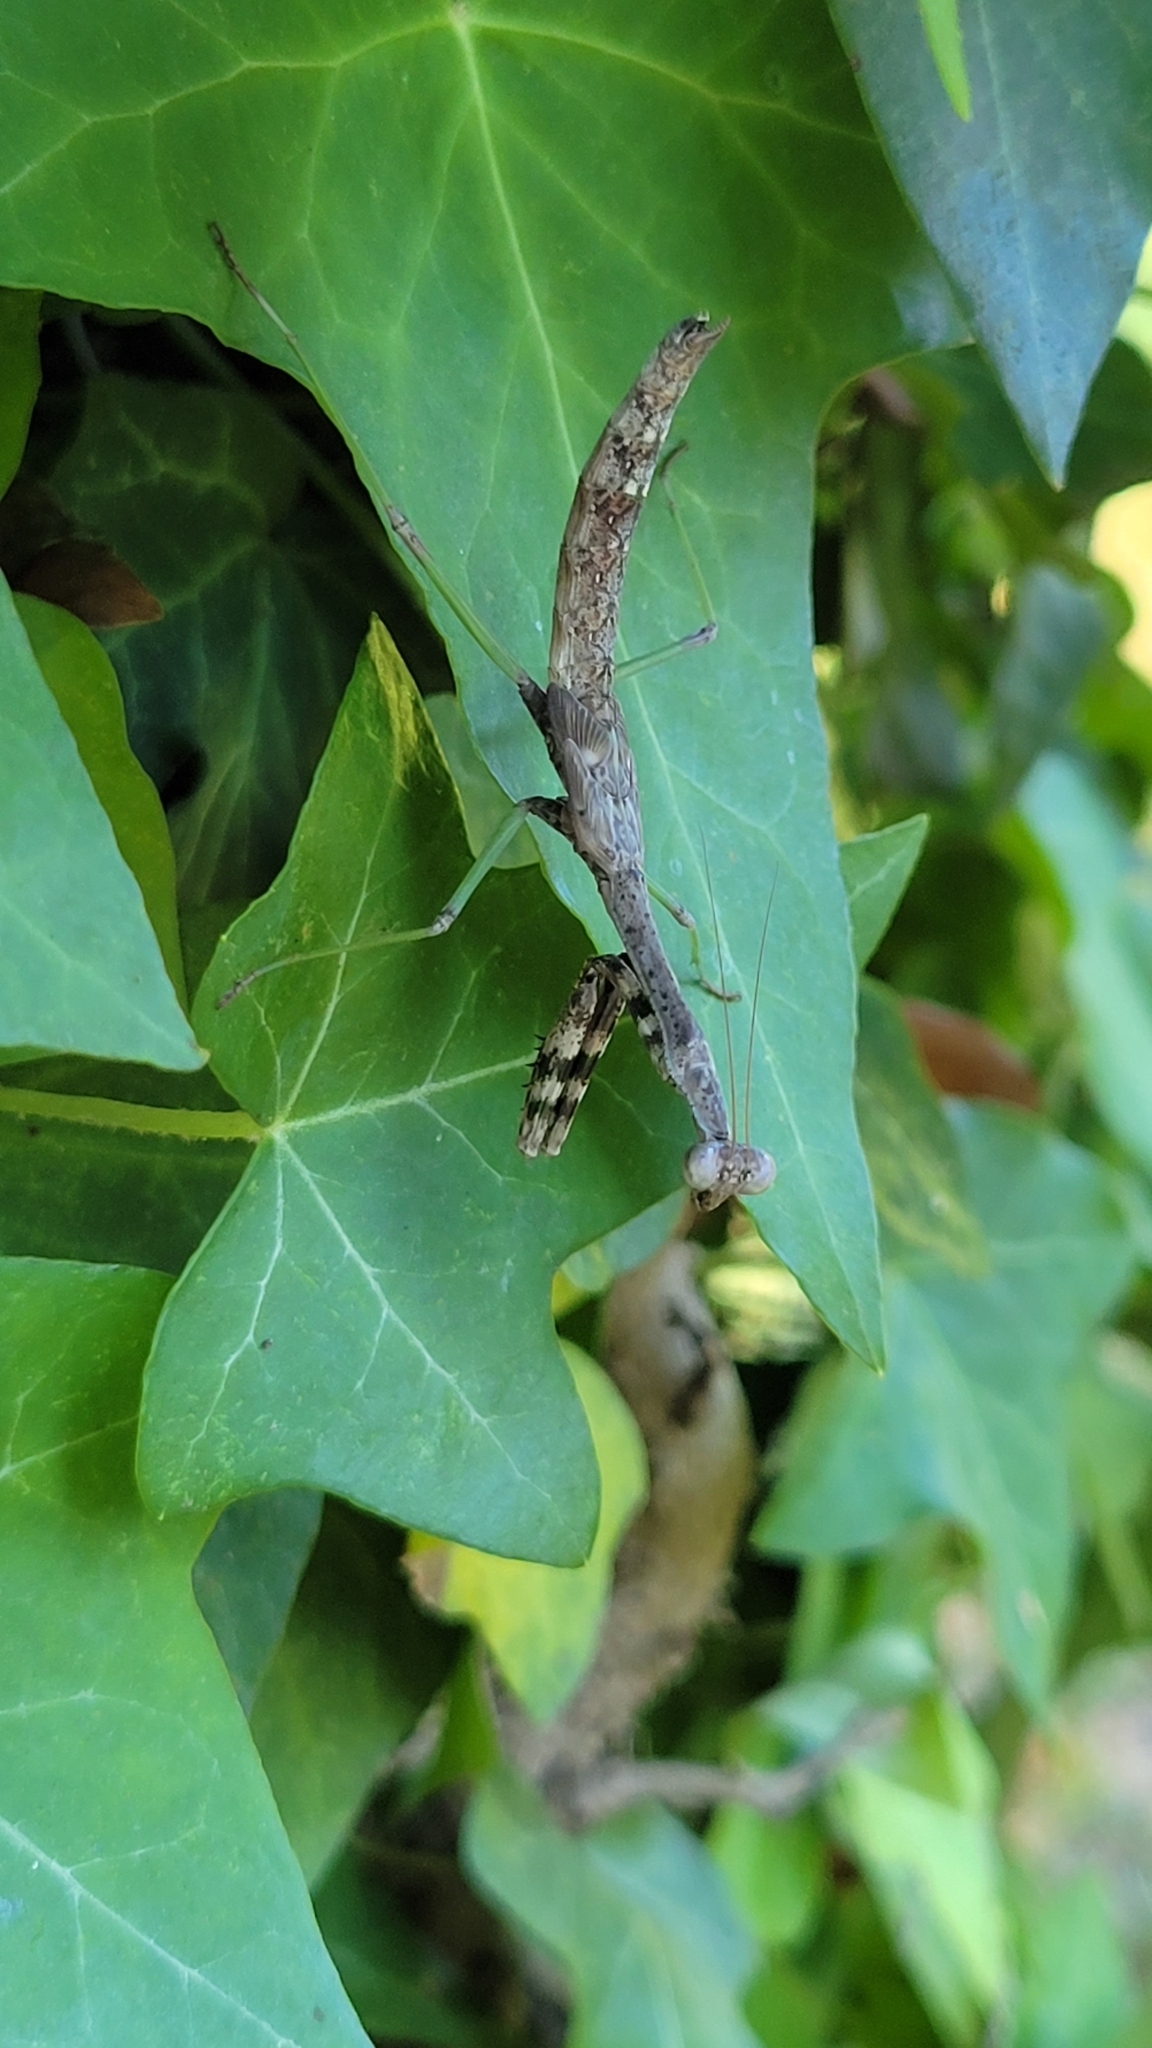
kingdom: Animalia
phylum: Arthropoda
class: Insecta
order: Mantodea
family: Mantidae
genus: Stagmomantis
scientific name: Stagmomantis carolina
